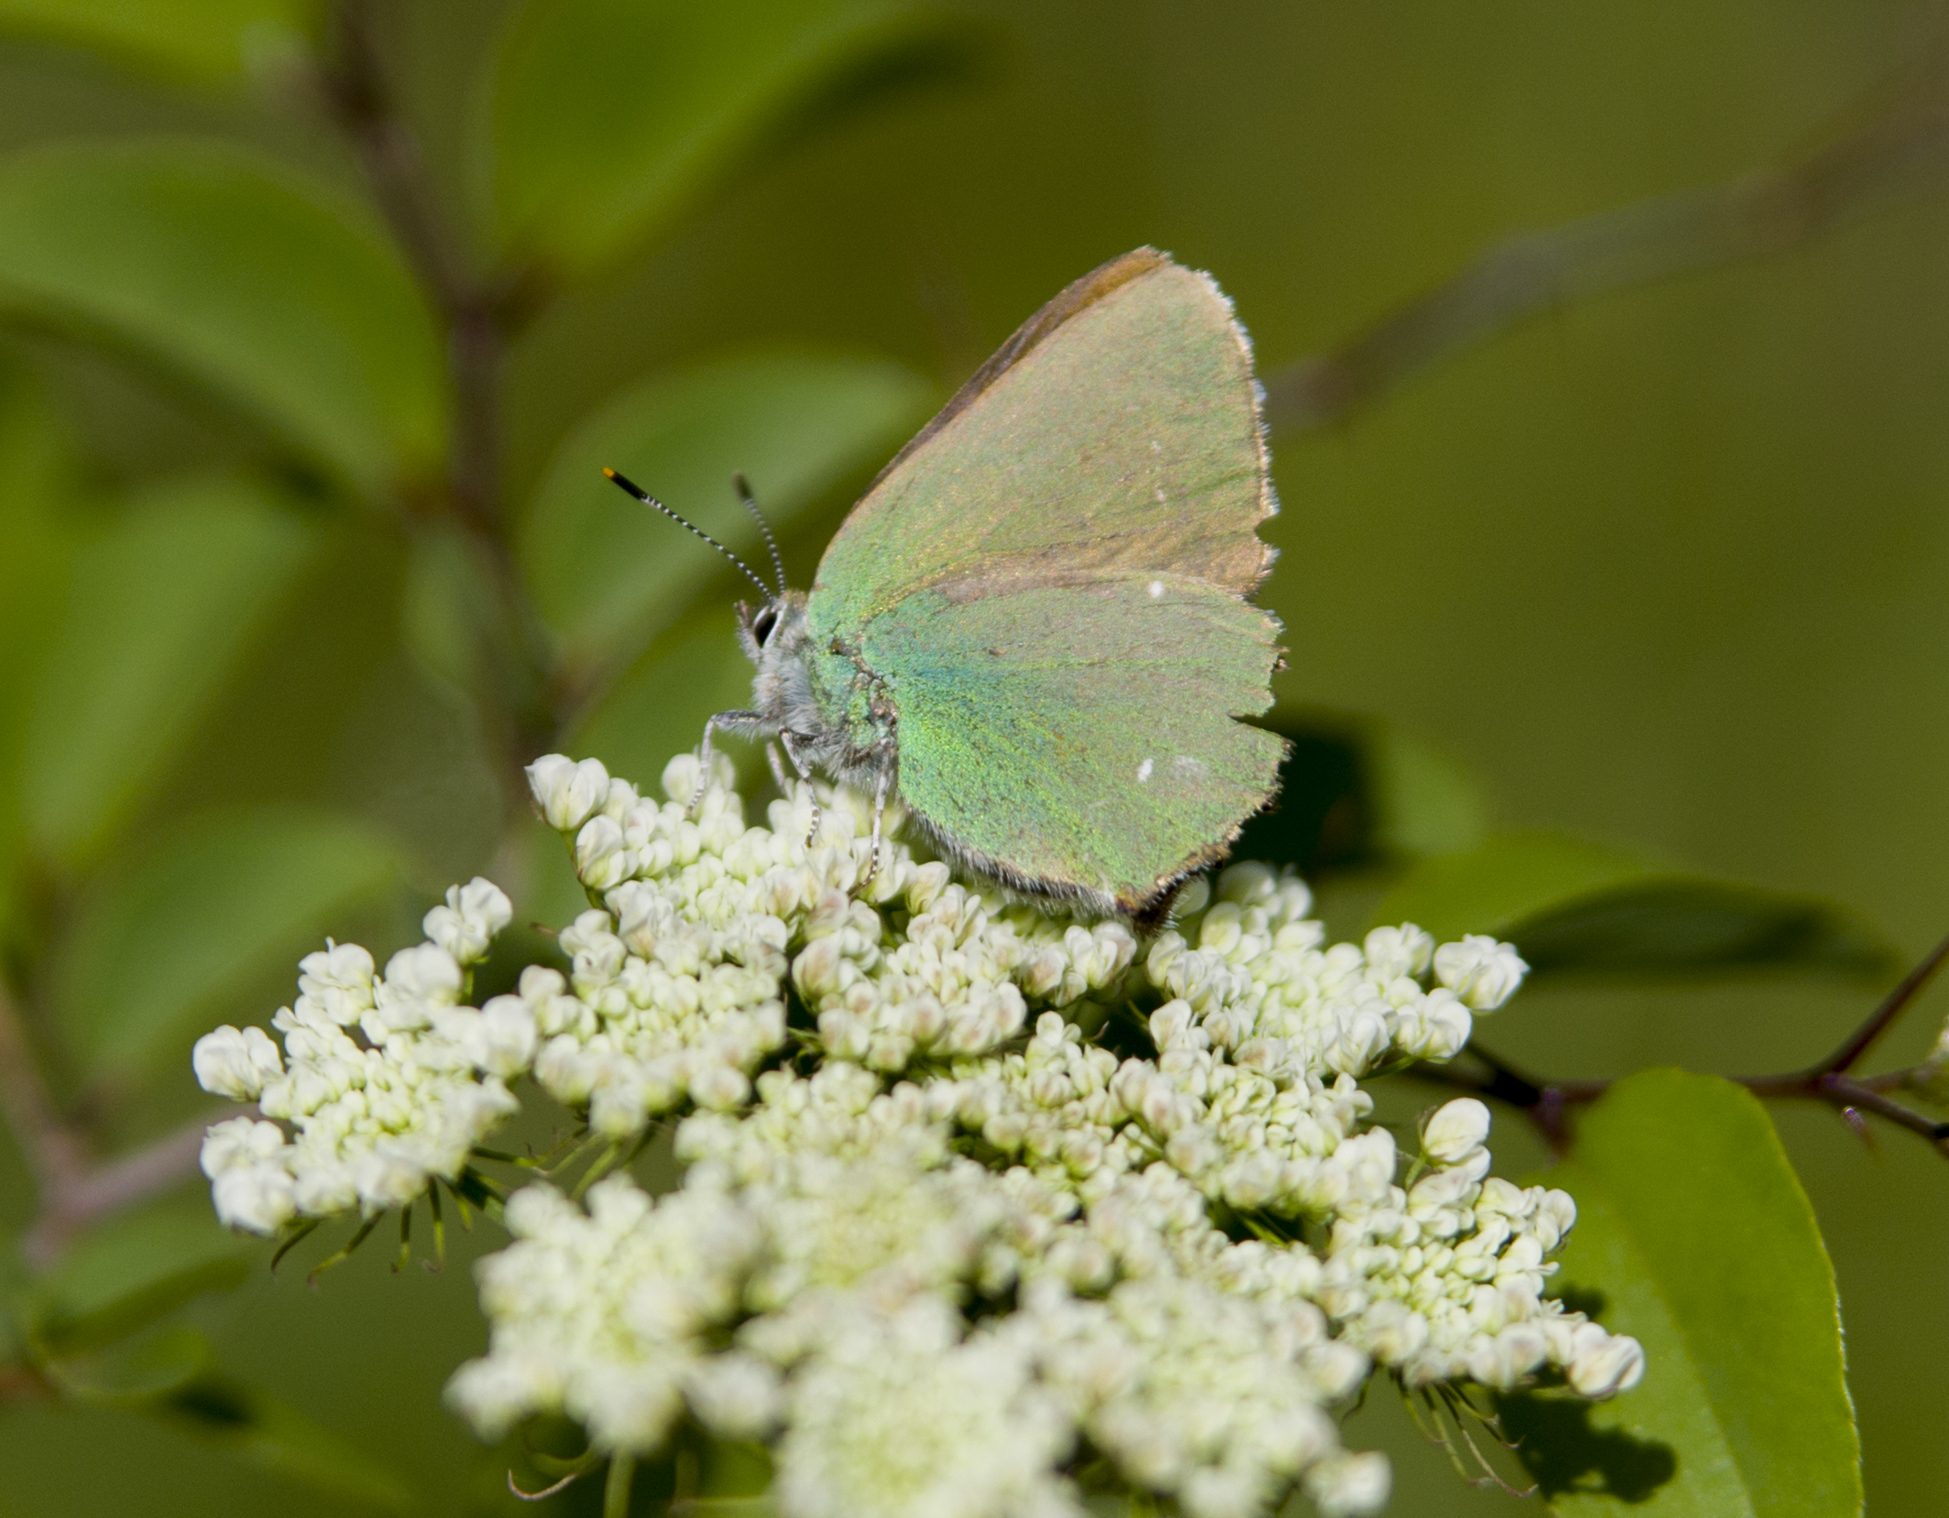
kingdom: Animalia
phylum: Arthropoda
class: Insecta
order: Lepidoptera
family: Lycaenidae
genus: Callophrys
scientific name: Callophrys rubi
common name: Green hairstreak
